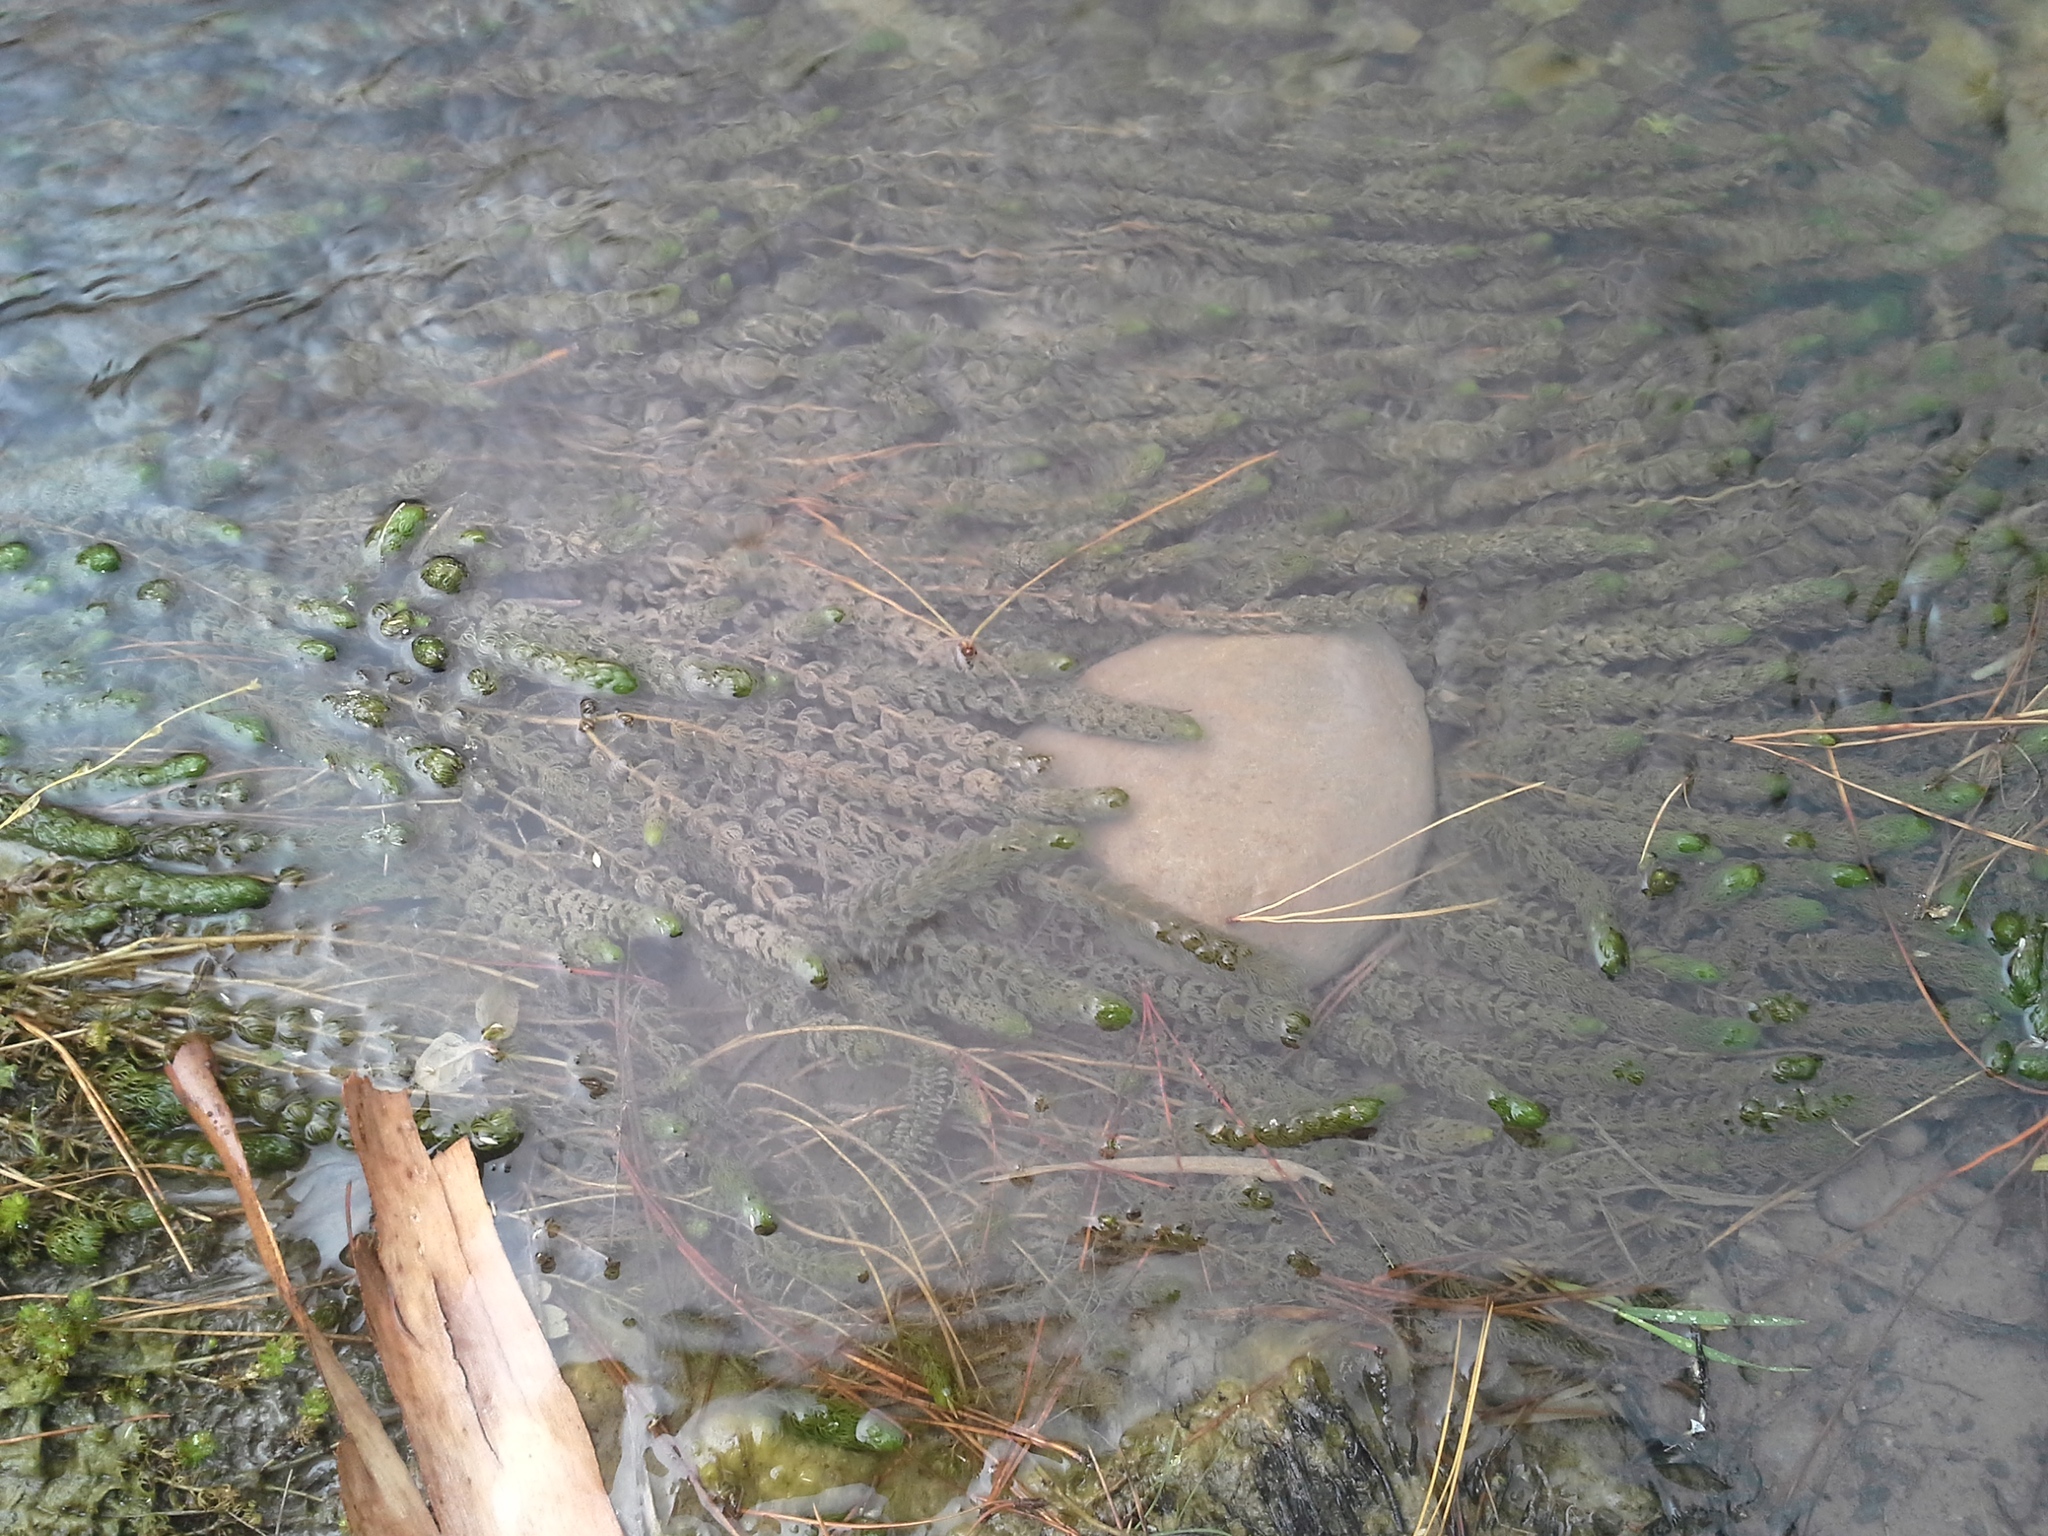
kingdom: Plantae
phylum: Tracheophyta
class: Magnoliopsida
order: Saxifragales
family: Haloragaceae
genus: Myriophyllum
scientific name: Myriophyllum triphyllum
